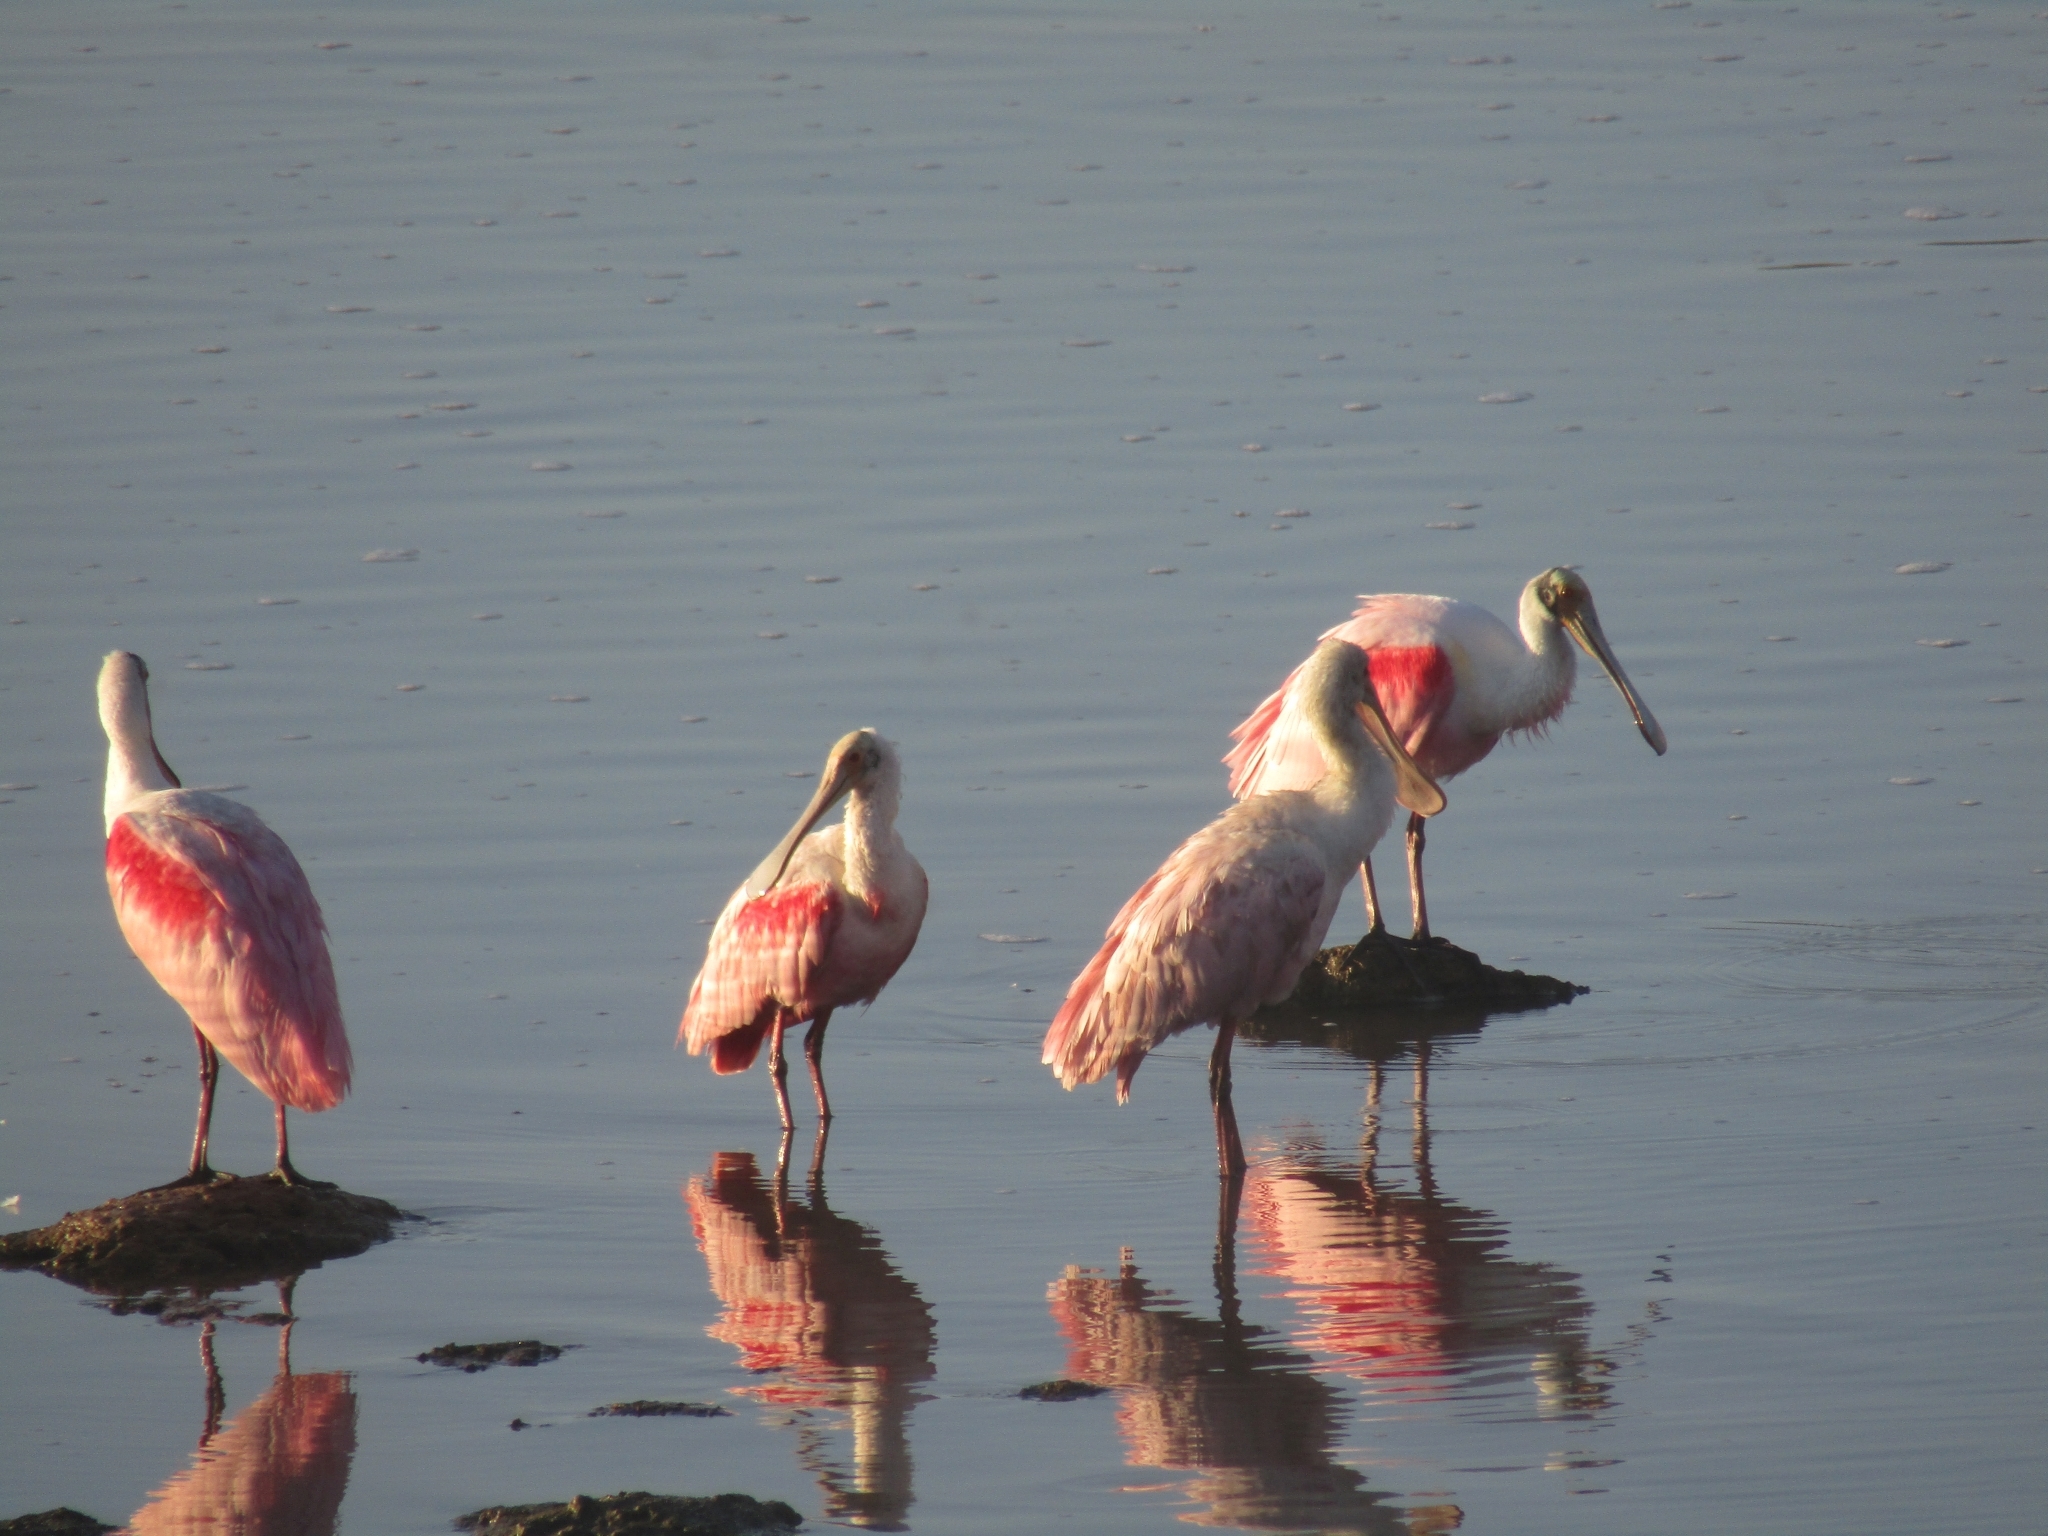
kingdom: Animalia
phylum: Chordata
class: Aves
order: Pelecaniformes
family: Threskiornithidae
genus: Platalea
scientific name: Platalea ajaja
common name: Roseate spoonbill
